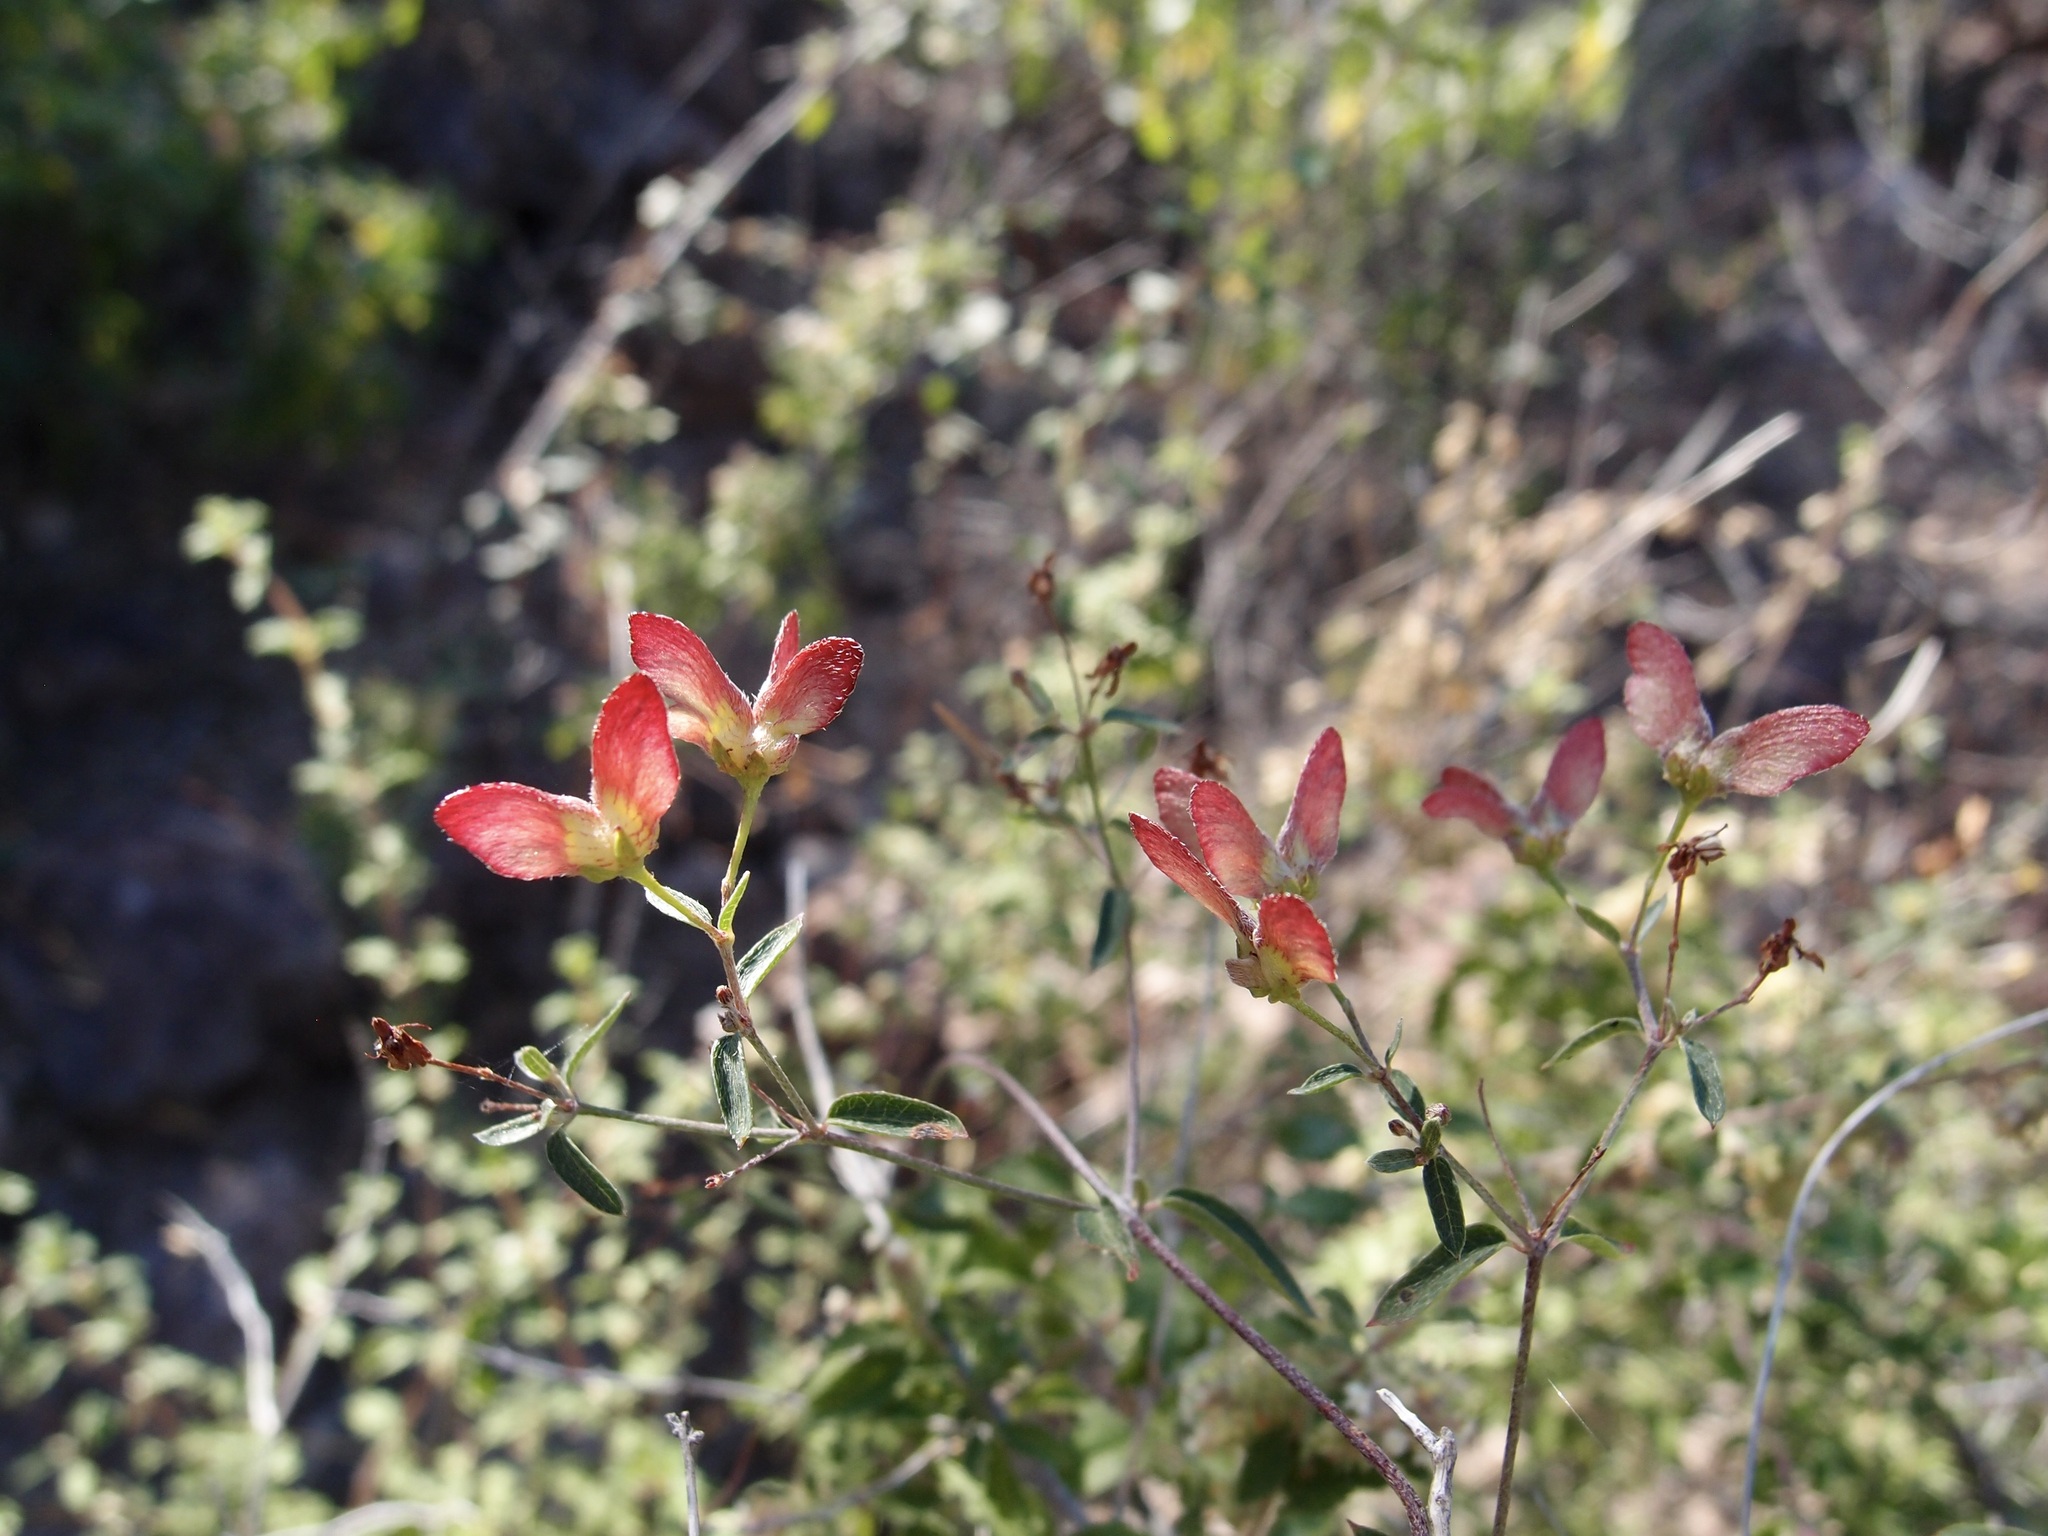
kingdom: Plantae
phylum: Tracheophyta
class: Magnoliopsida
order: Malpighiales
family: Malpighiaceae
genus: Cottsia
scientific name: Cottsia gracilis
